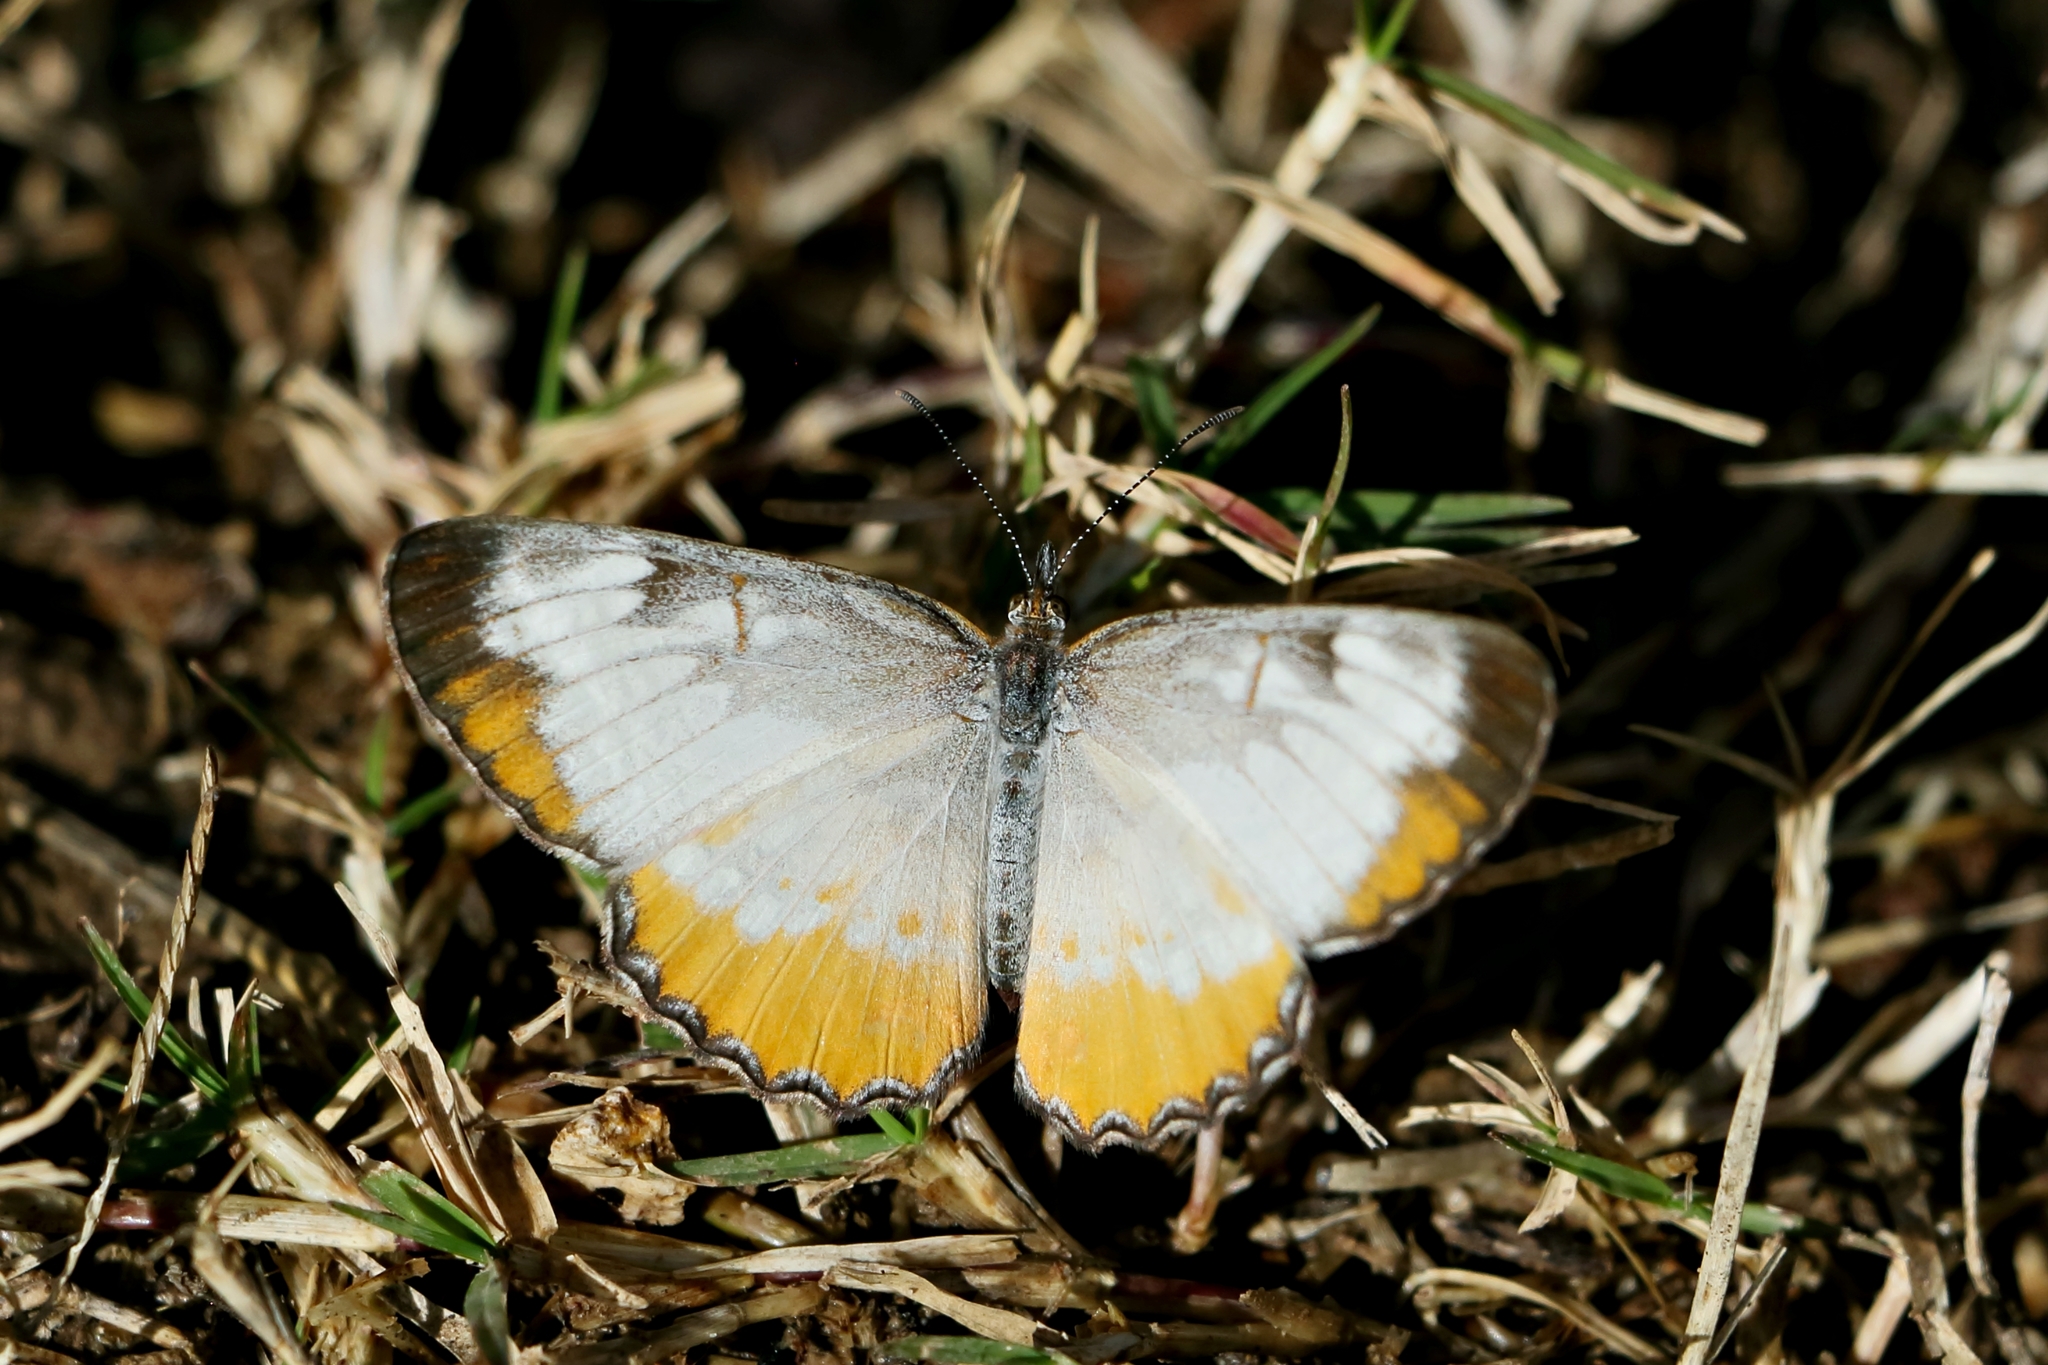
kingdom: Animalia
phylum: Arthropoda
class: Insecta
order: Lepidoptera
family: Nymphalidae
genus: Mestra
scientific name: Mestra amymone
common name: Common mestra
